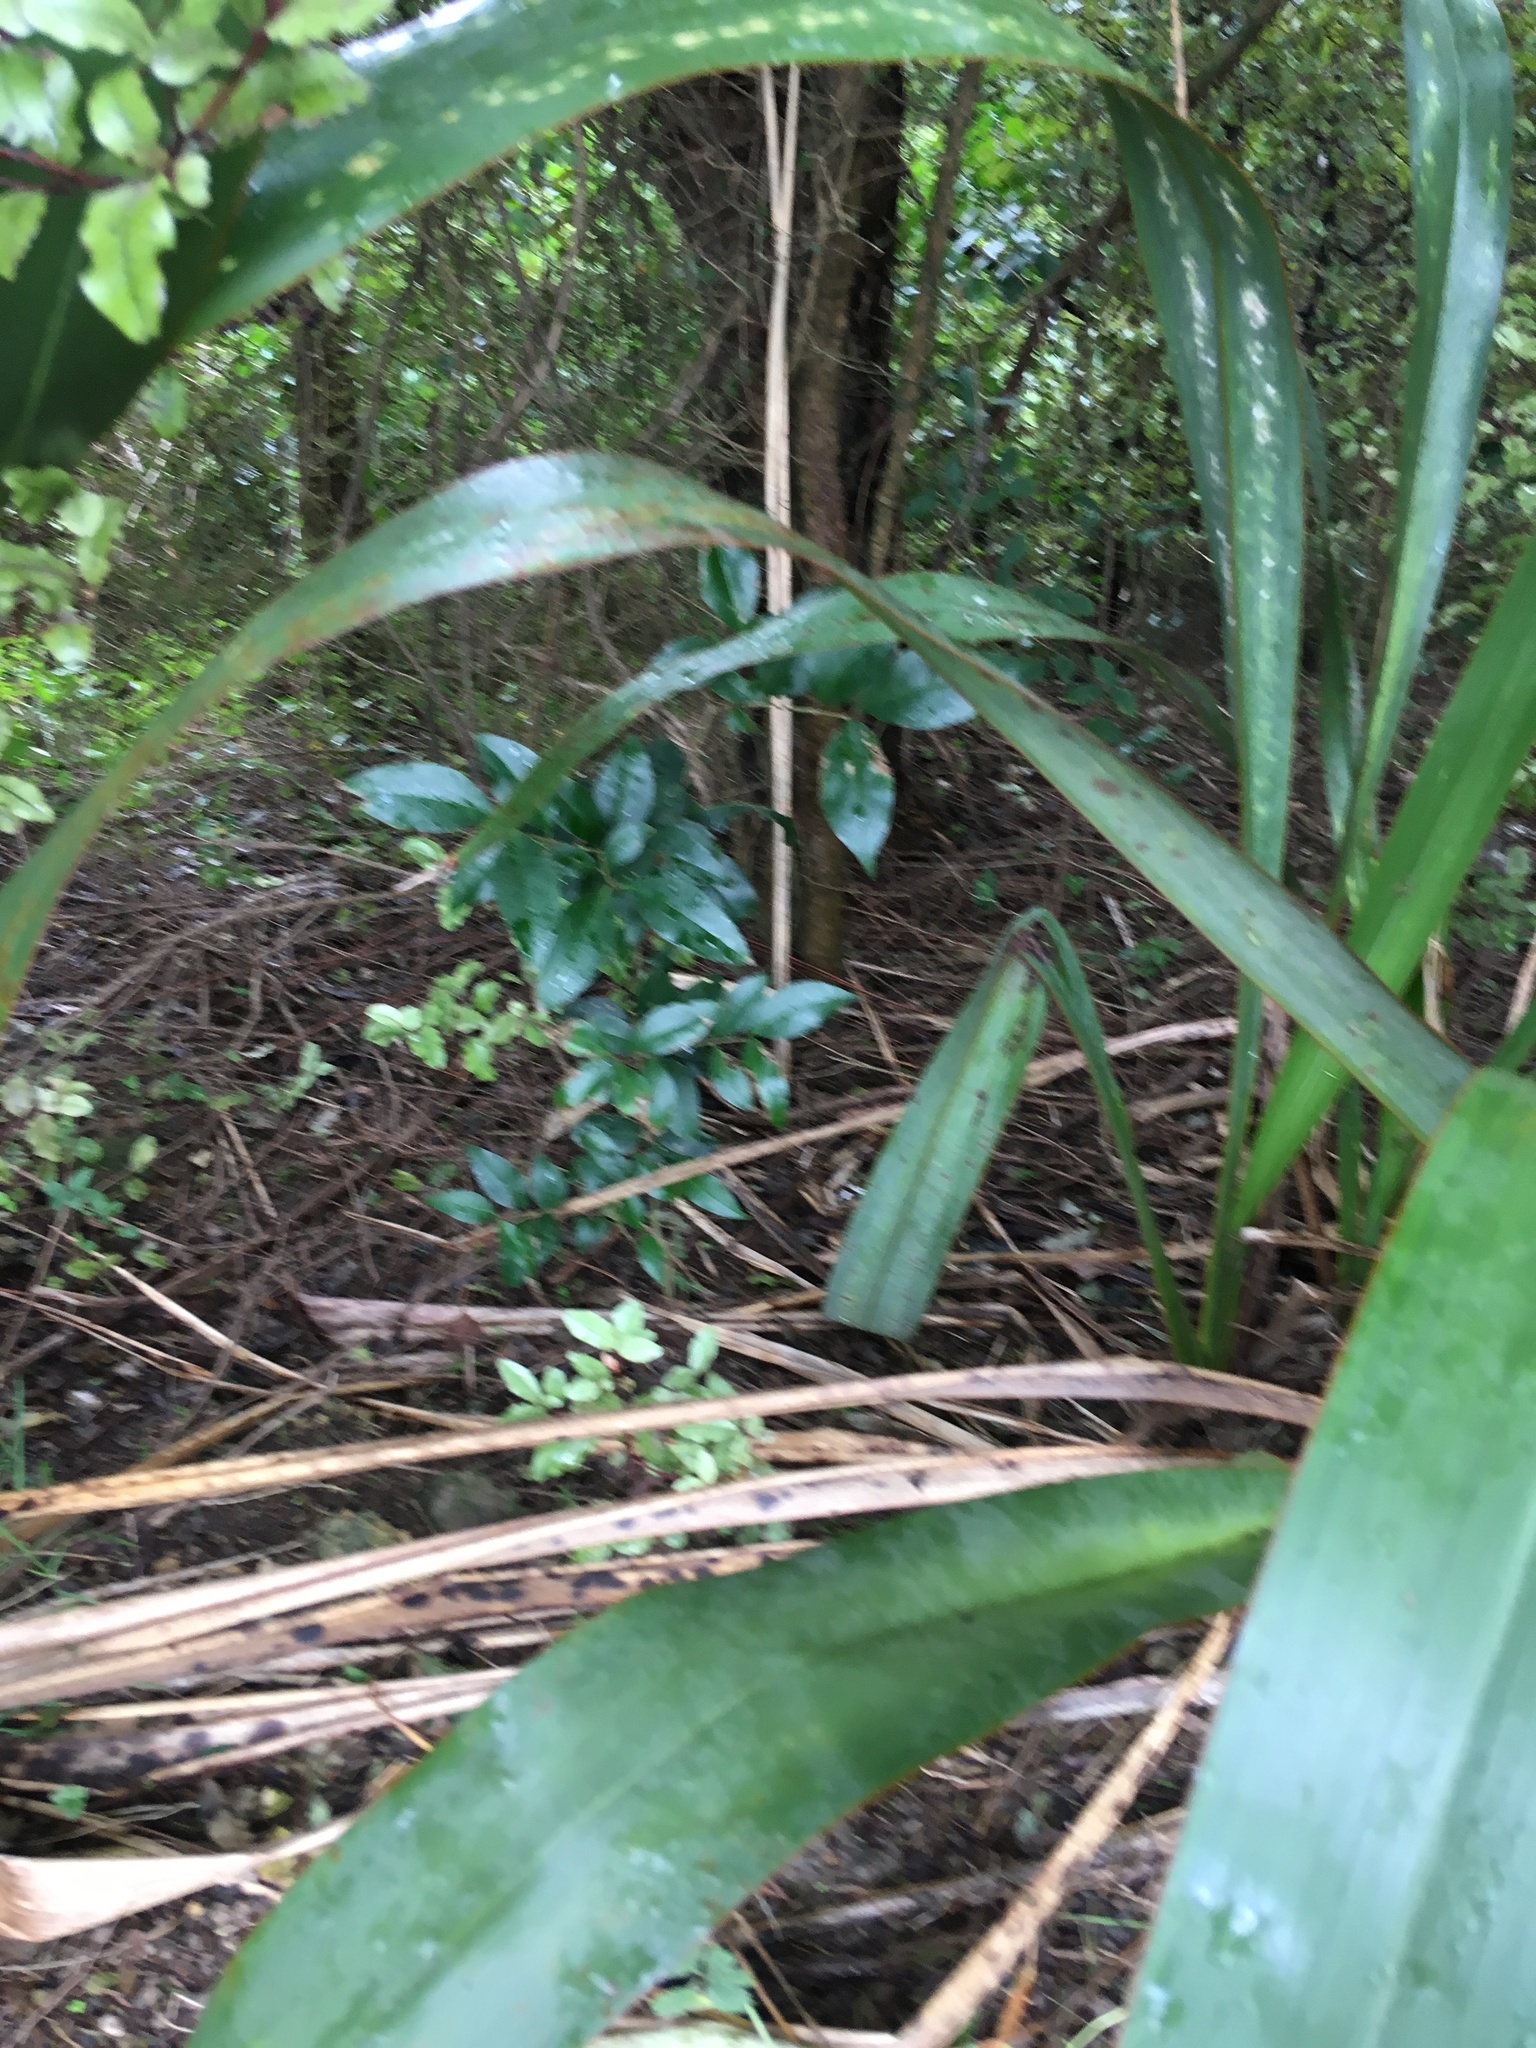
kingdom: Plantae
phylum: Tracheophyta
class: Magnoliopsida
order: Lamiales
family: Oleaceae
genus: Ligustrum
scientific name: Ligustrum lucidum
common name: Glossy privet
